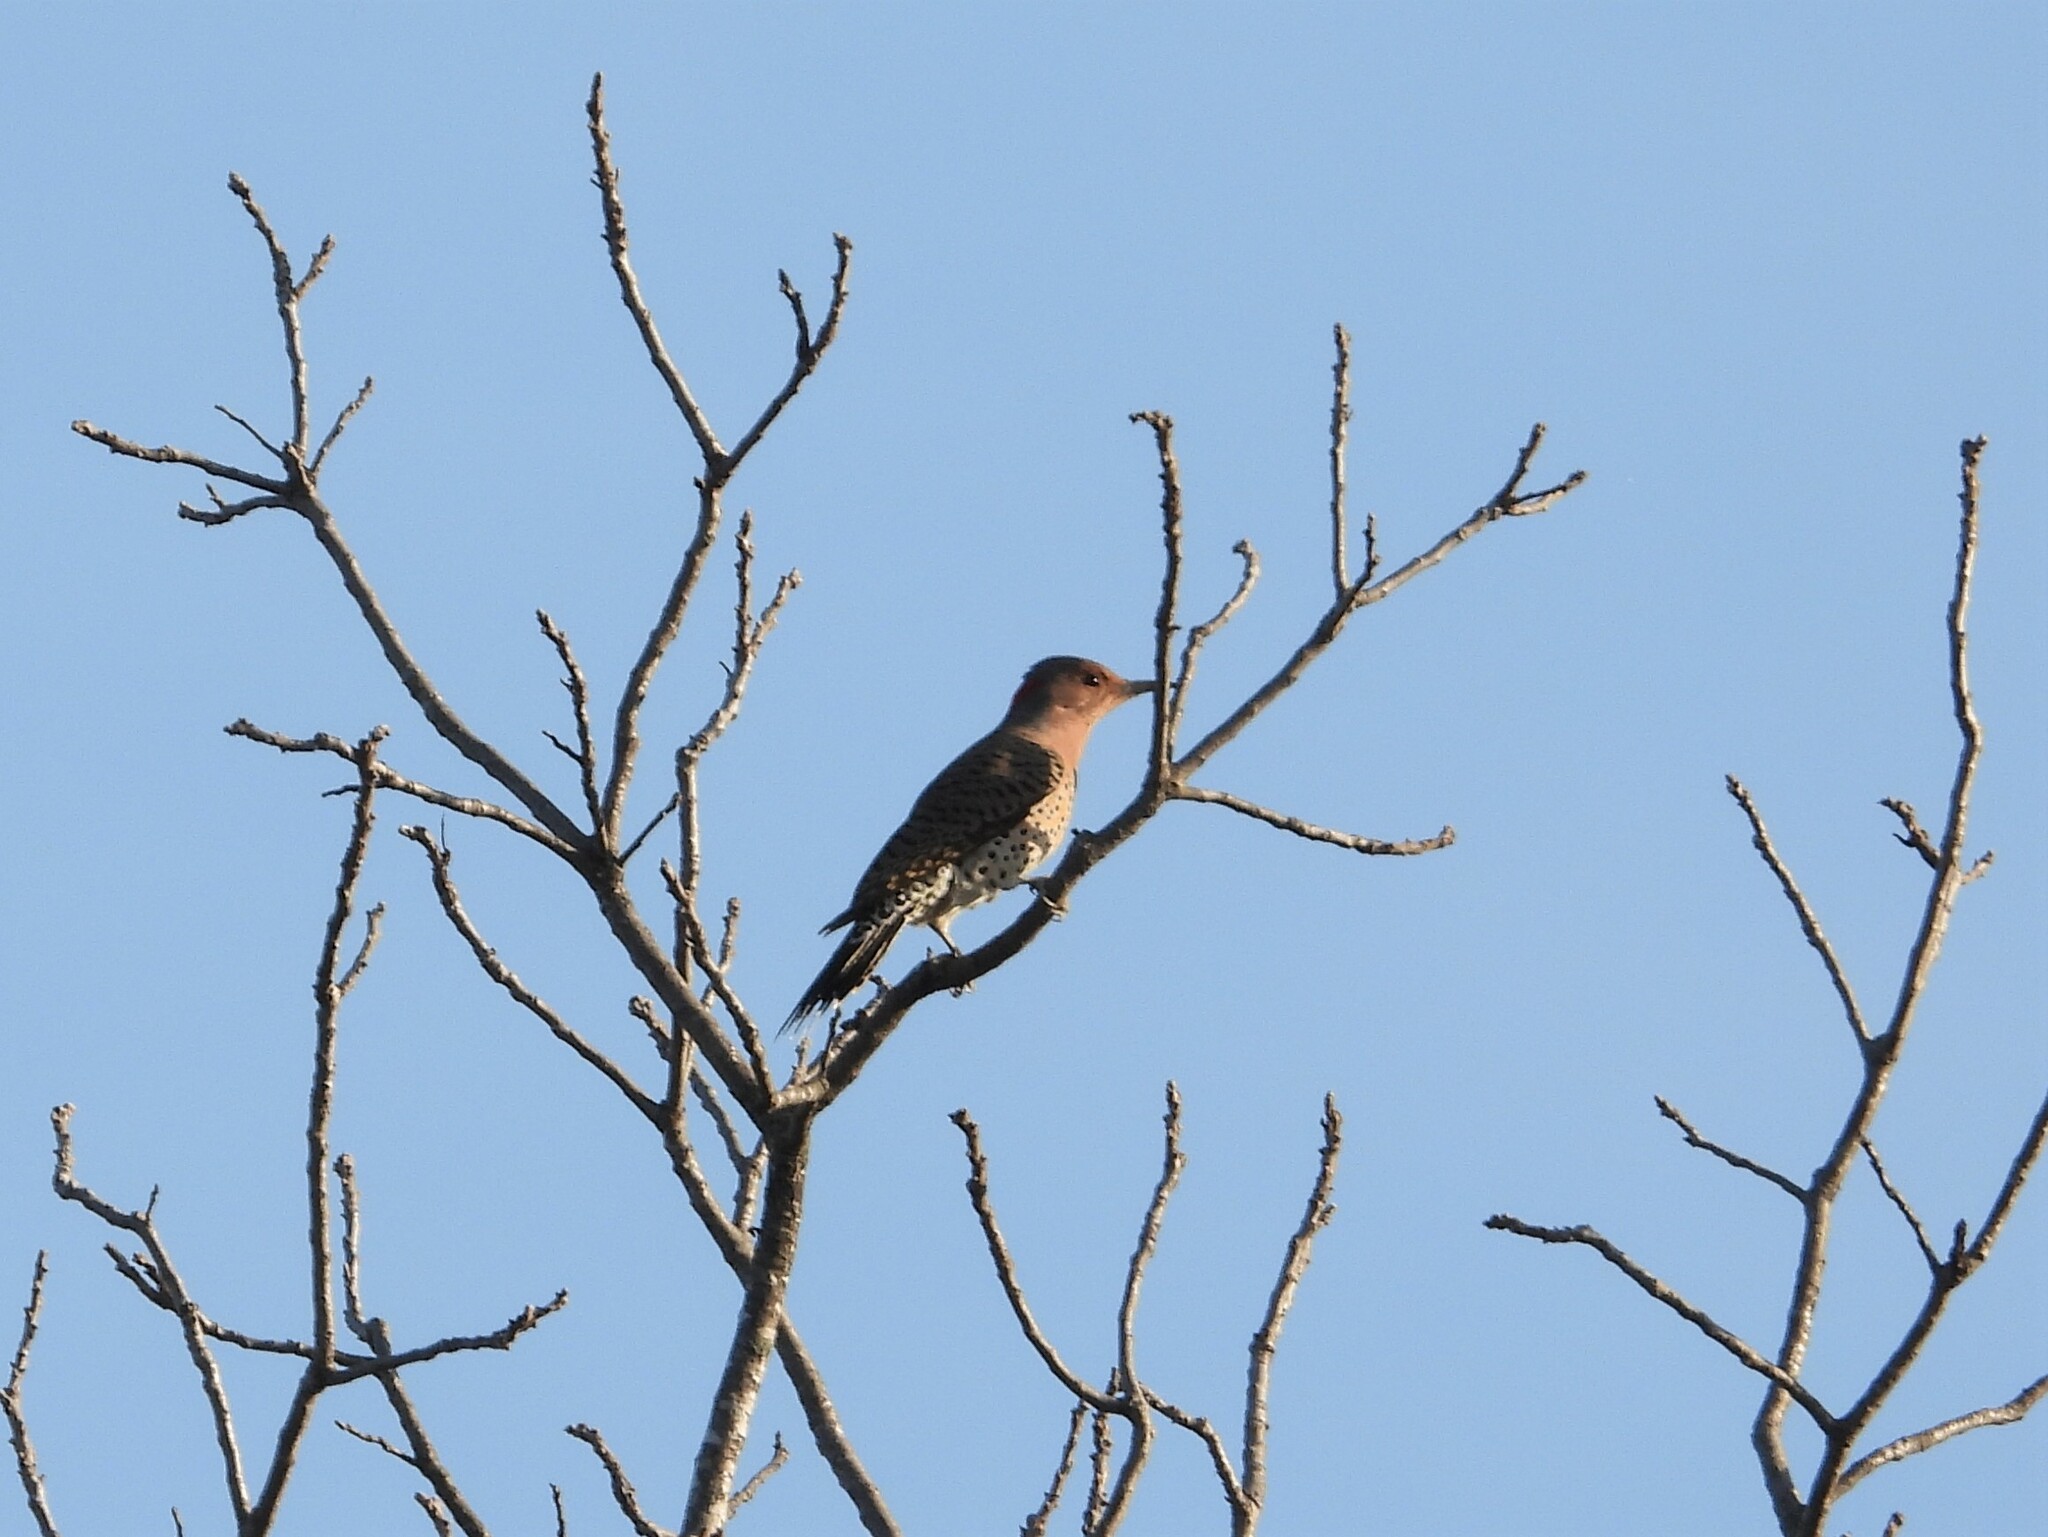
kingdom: Animalia
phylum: Chordata
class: Aves
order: Piciformes
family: Picidae
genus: Colaptes
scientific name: Colaptes auratus
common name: Northern flicker
